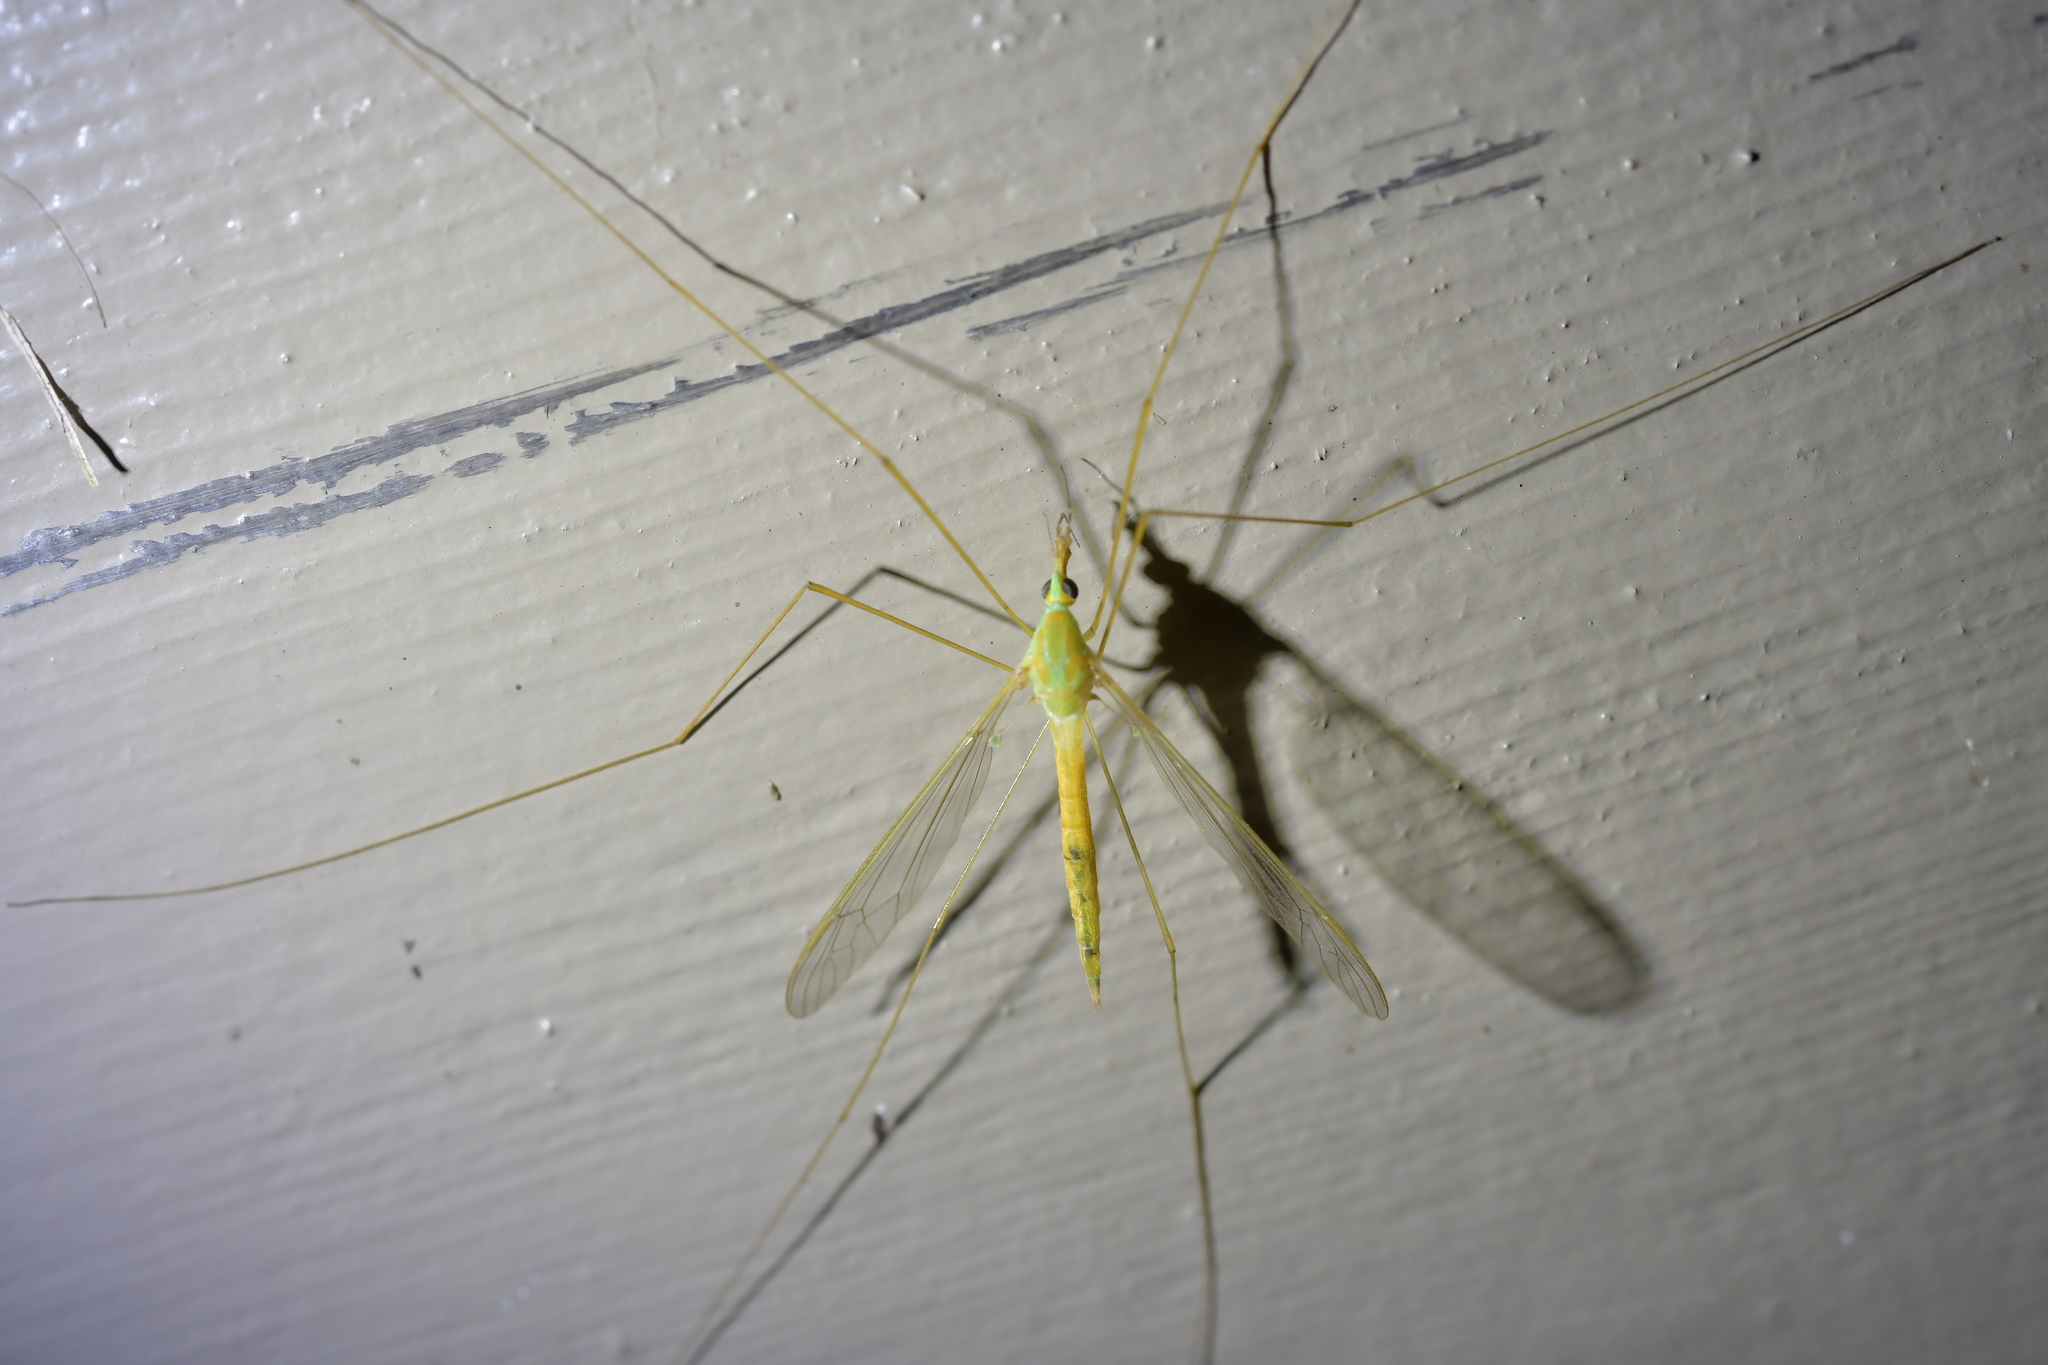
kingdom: Animalia
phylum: Arthropoda
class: Insecta
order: Diptera
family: Tipulidae
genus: Leptotarsus
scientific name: Leptotarsus virescens
